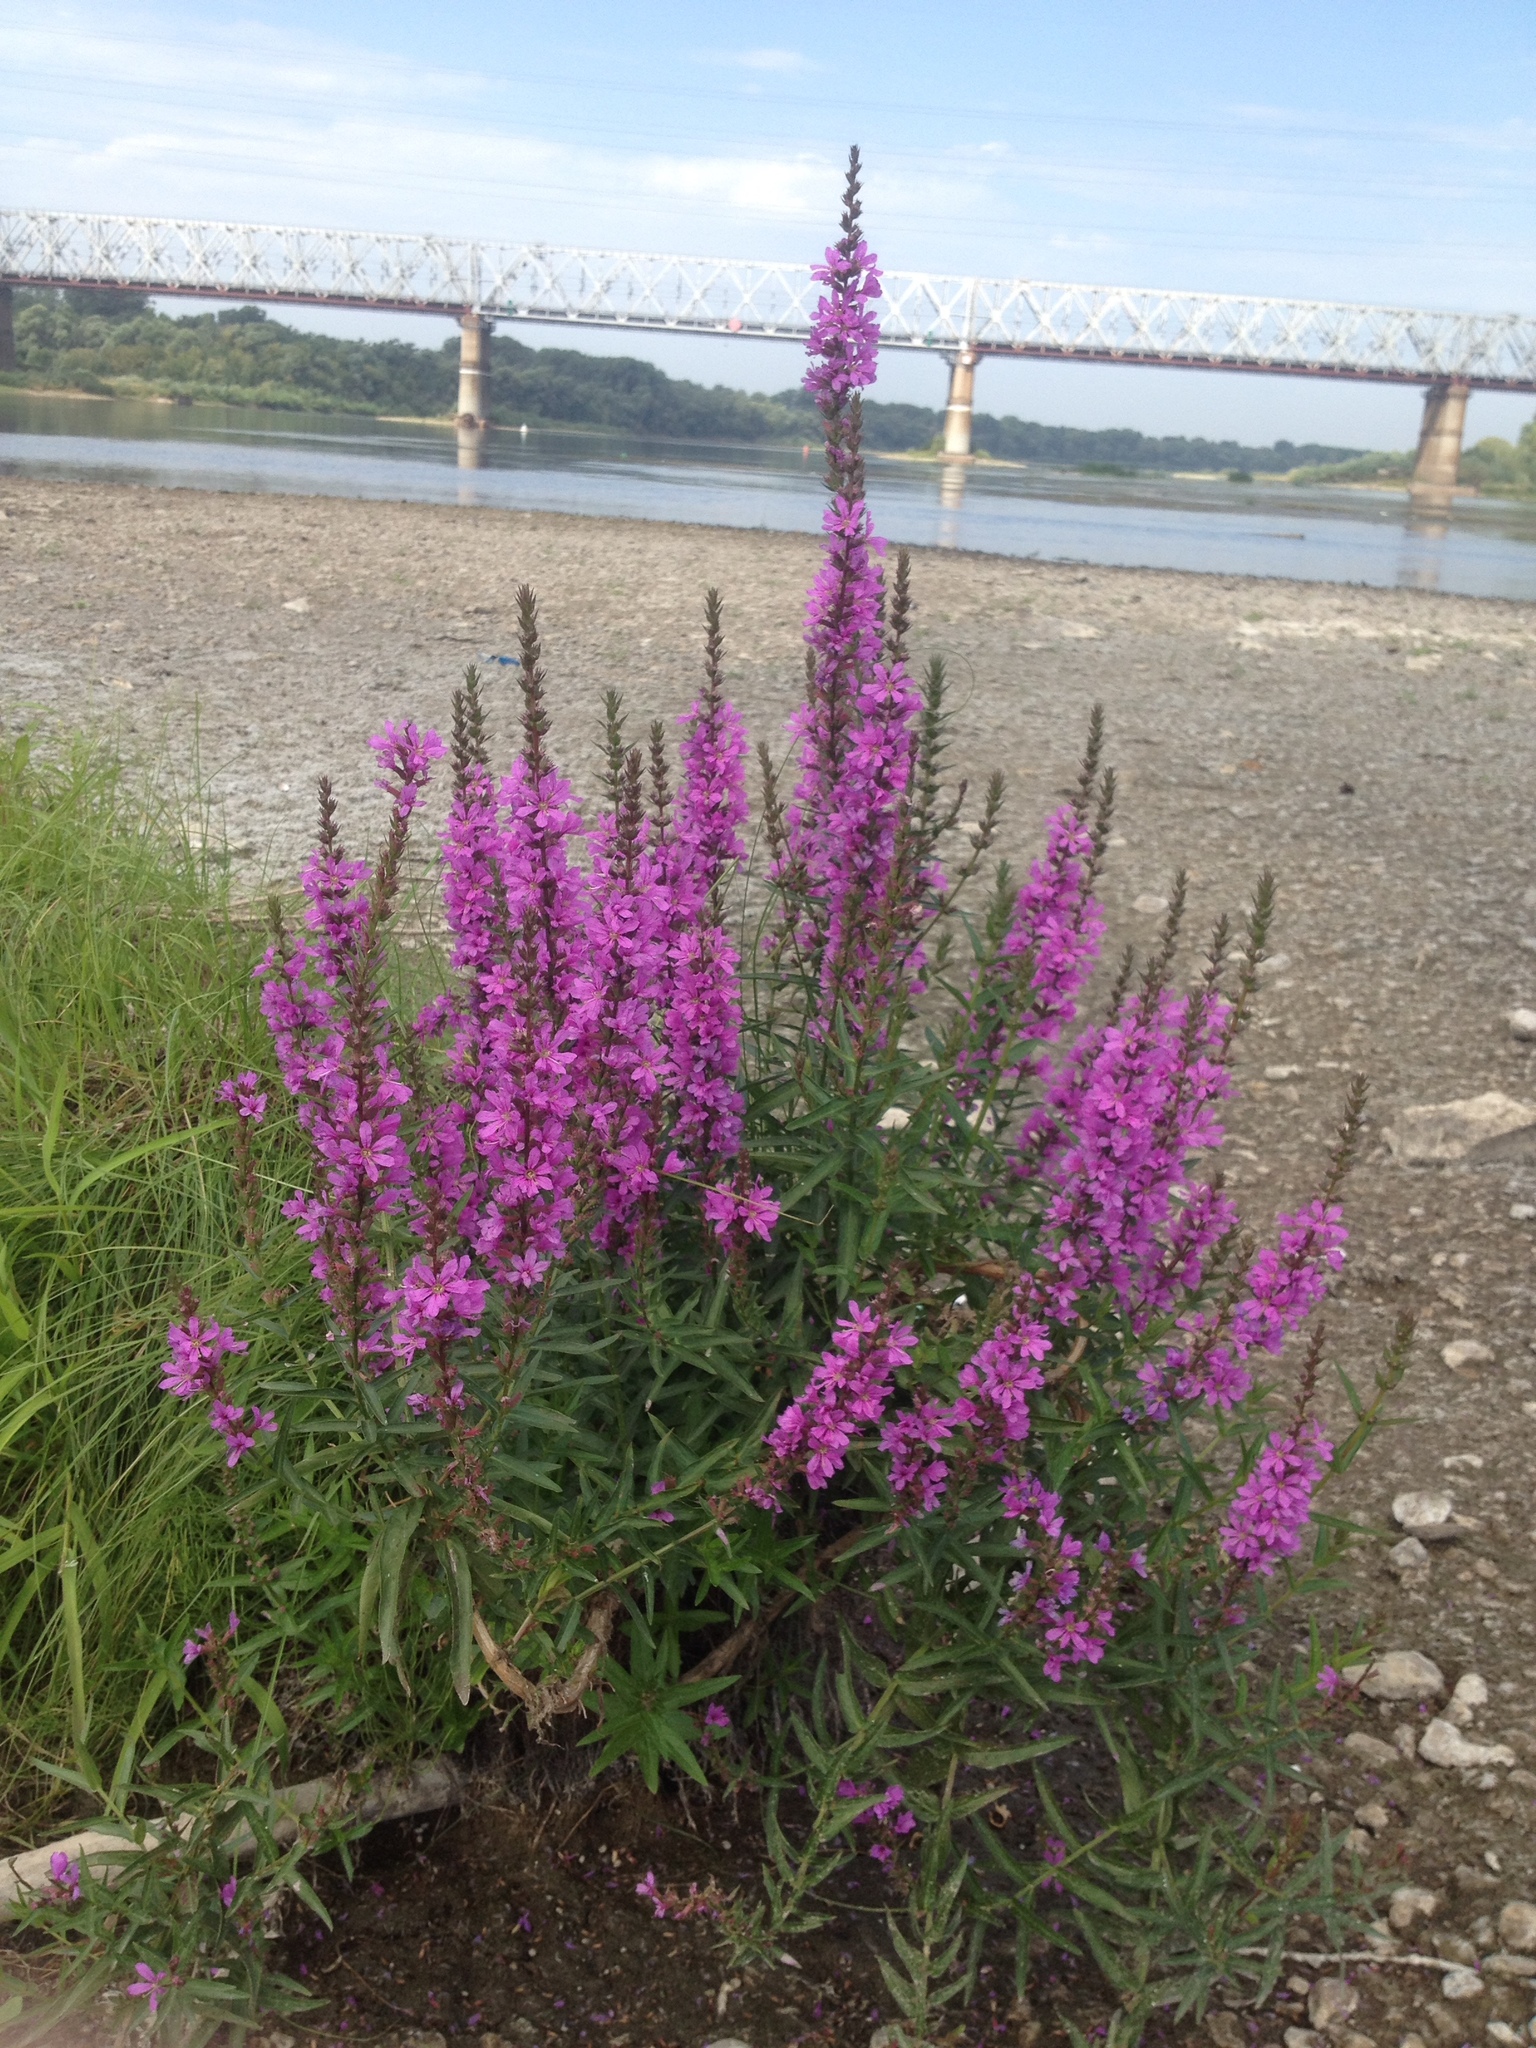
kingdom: Plantae
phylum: Tracheophyta
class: Magnoliopsida
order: Myrtales
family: Lythraceae
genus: Lythrum
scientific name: Lythrum salicaria
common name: Purple loosestrife
